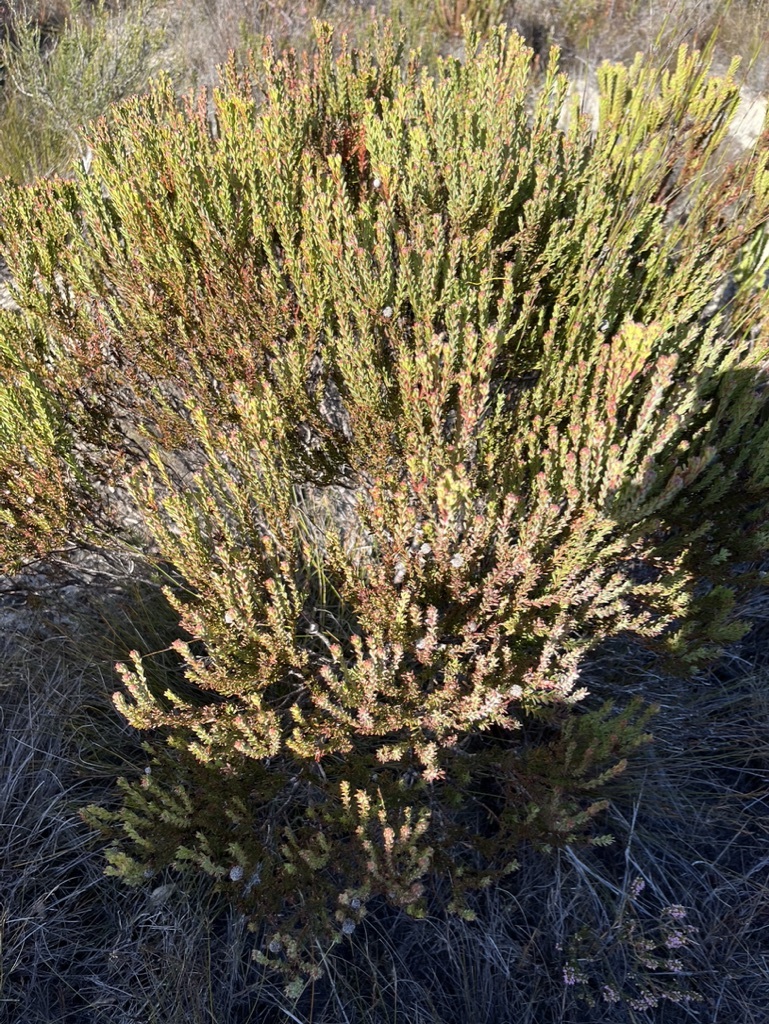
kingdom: Plantae
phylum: Tracheophyta
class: Magnoliopsida
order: Proteales
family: Proteaceae
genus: Leucadendron
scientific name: Leucadendron linifolium
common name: Line-leaf conebush
